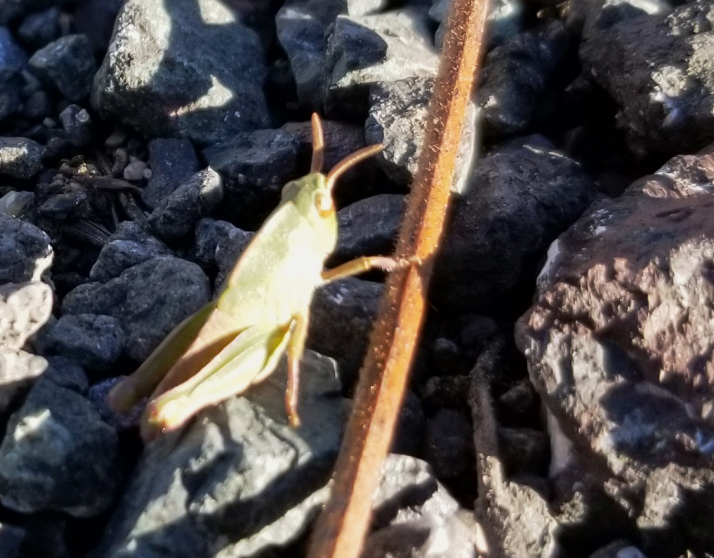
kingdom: Animalia
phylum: Arthropoda
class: Insecta
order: Orthoptera
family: Acrididae
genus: Chortophaga
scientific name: Chortophaga viridifasciata
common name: Green-striped grasshopper
